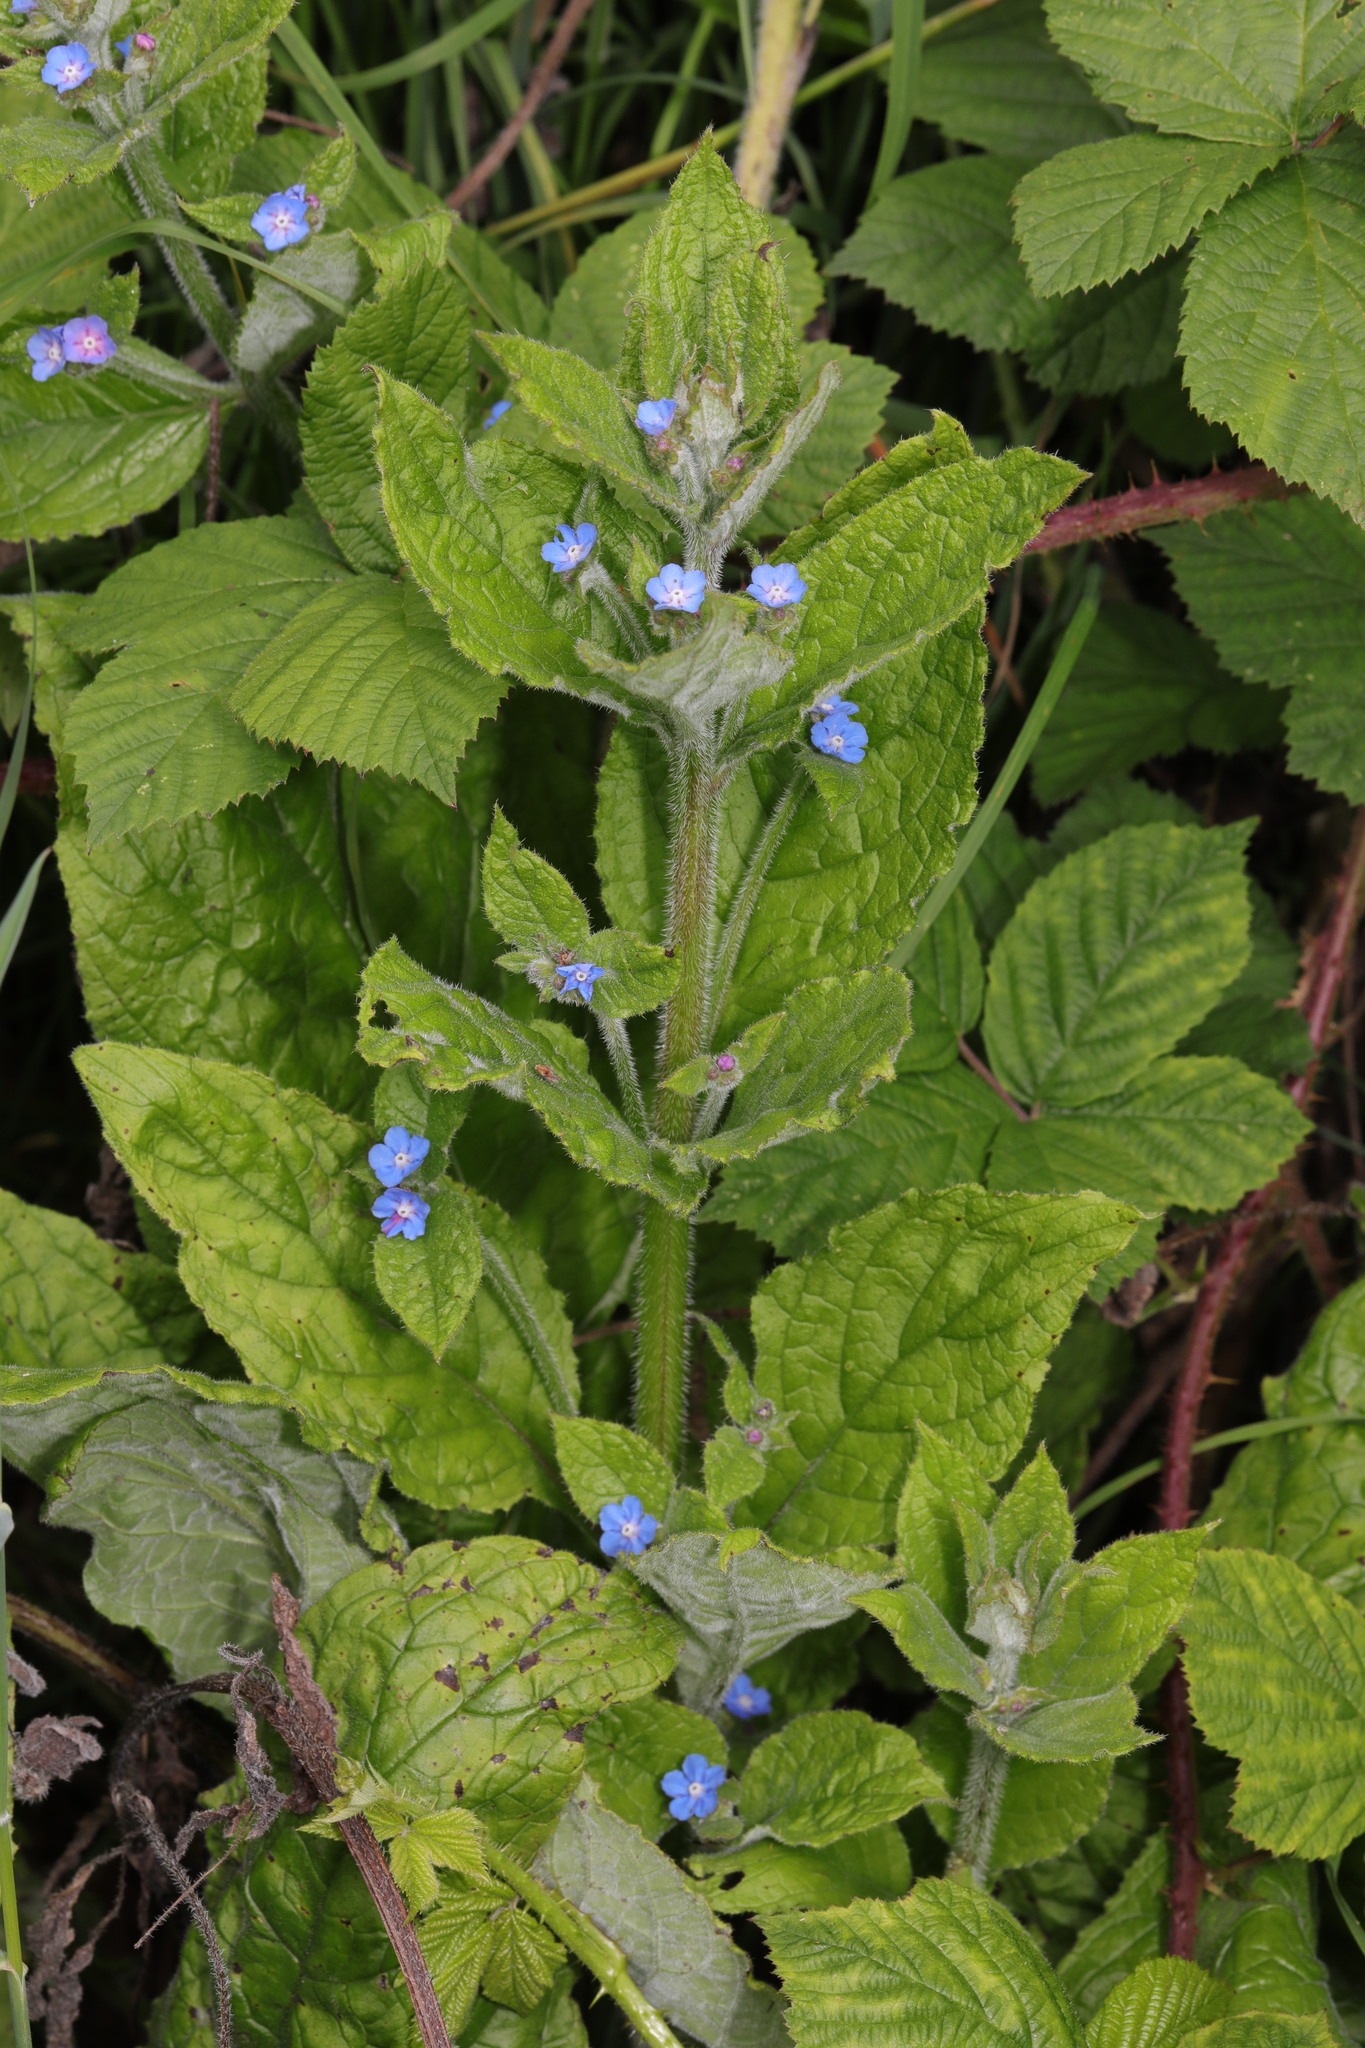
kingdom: Plantae
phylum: Tracheophyta
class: Magnoliopsida
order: Boraginales
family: Boraginaceae
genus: Pentaglottis
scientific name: Pentaglottis sempervirens
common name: Green alkanet
